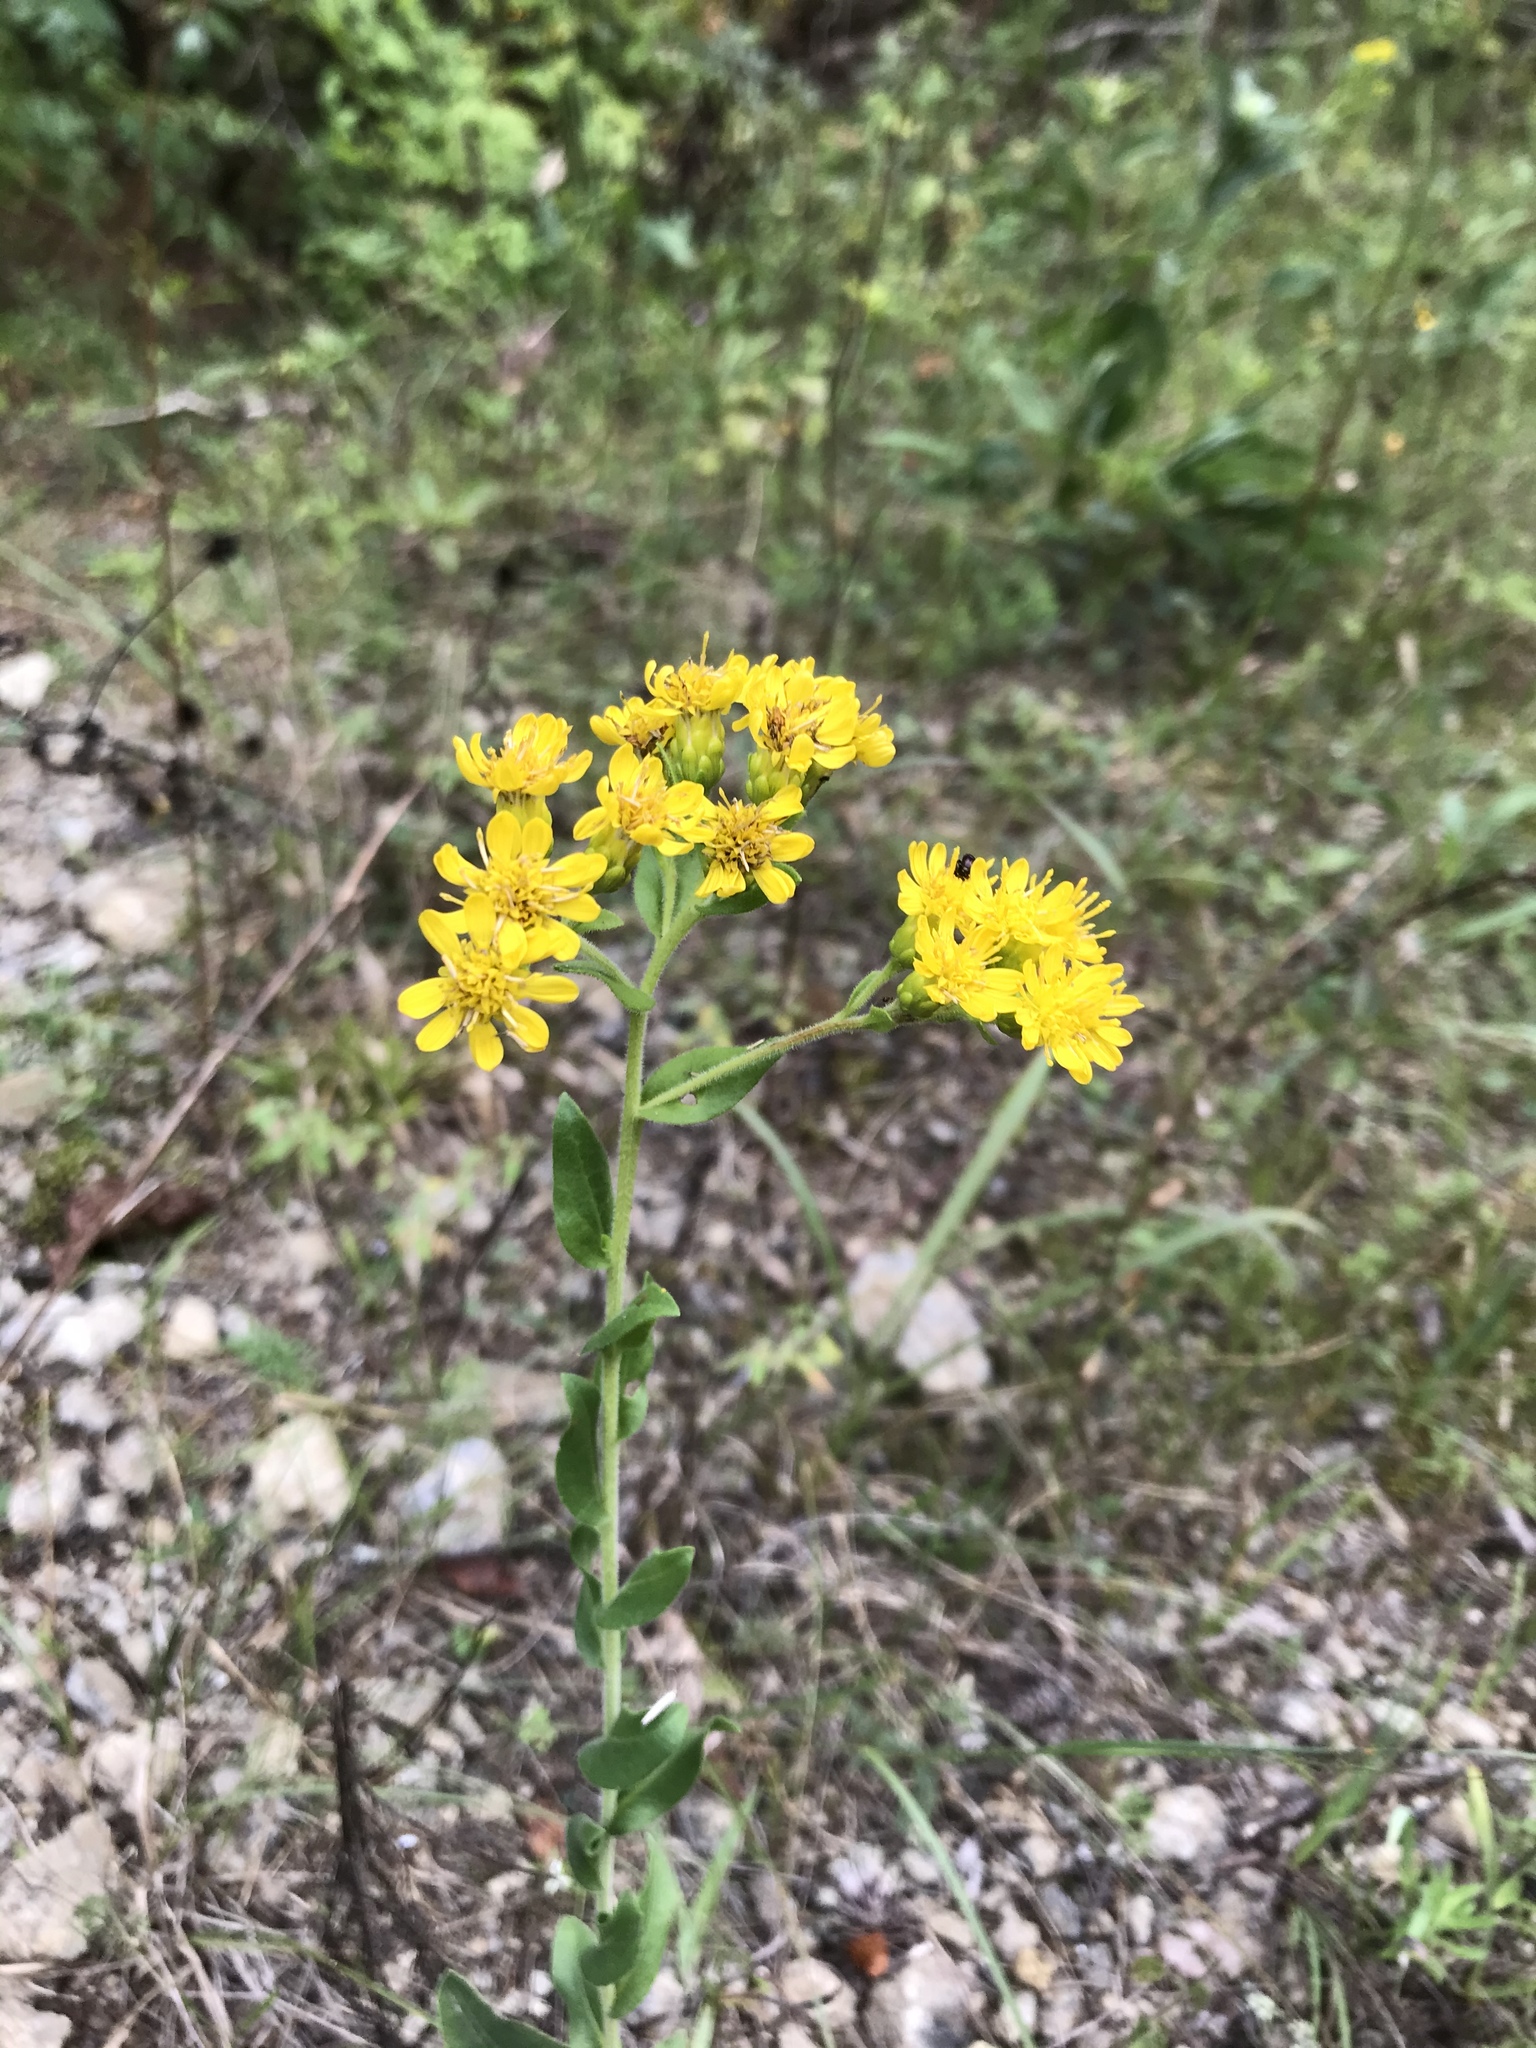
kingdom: Plantae
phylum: Tracheophyta
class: Magnoliopsida
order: Asterales
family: Asteraceae
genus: Chrysopsis
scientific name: Chrysopsis mariana
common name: Maryland golden-aster
